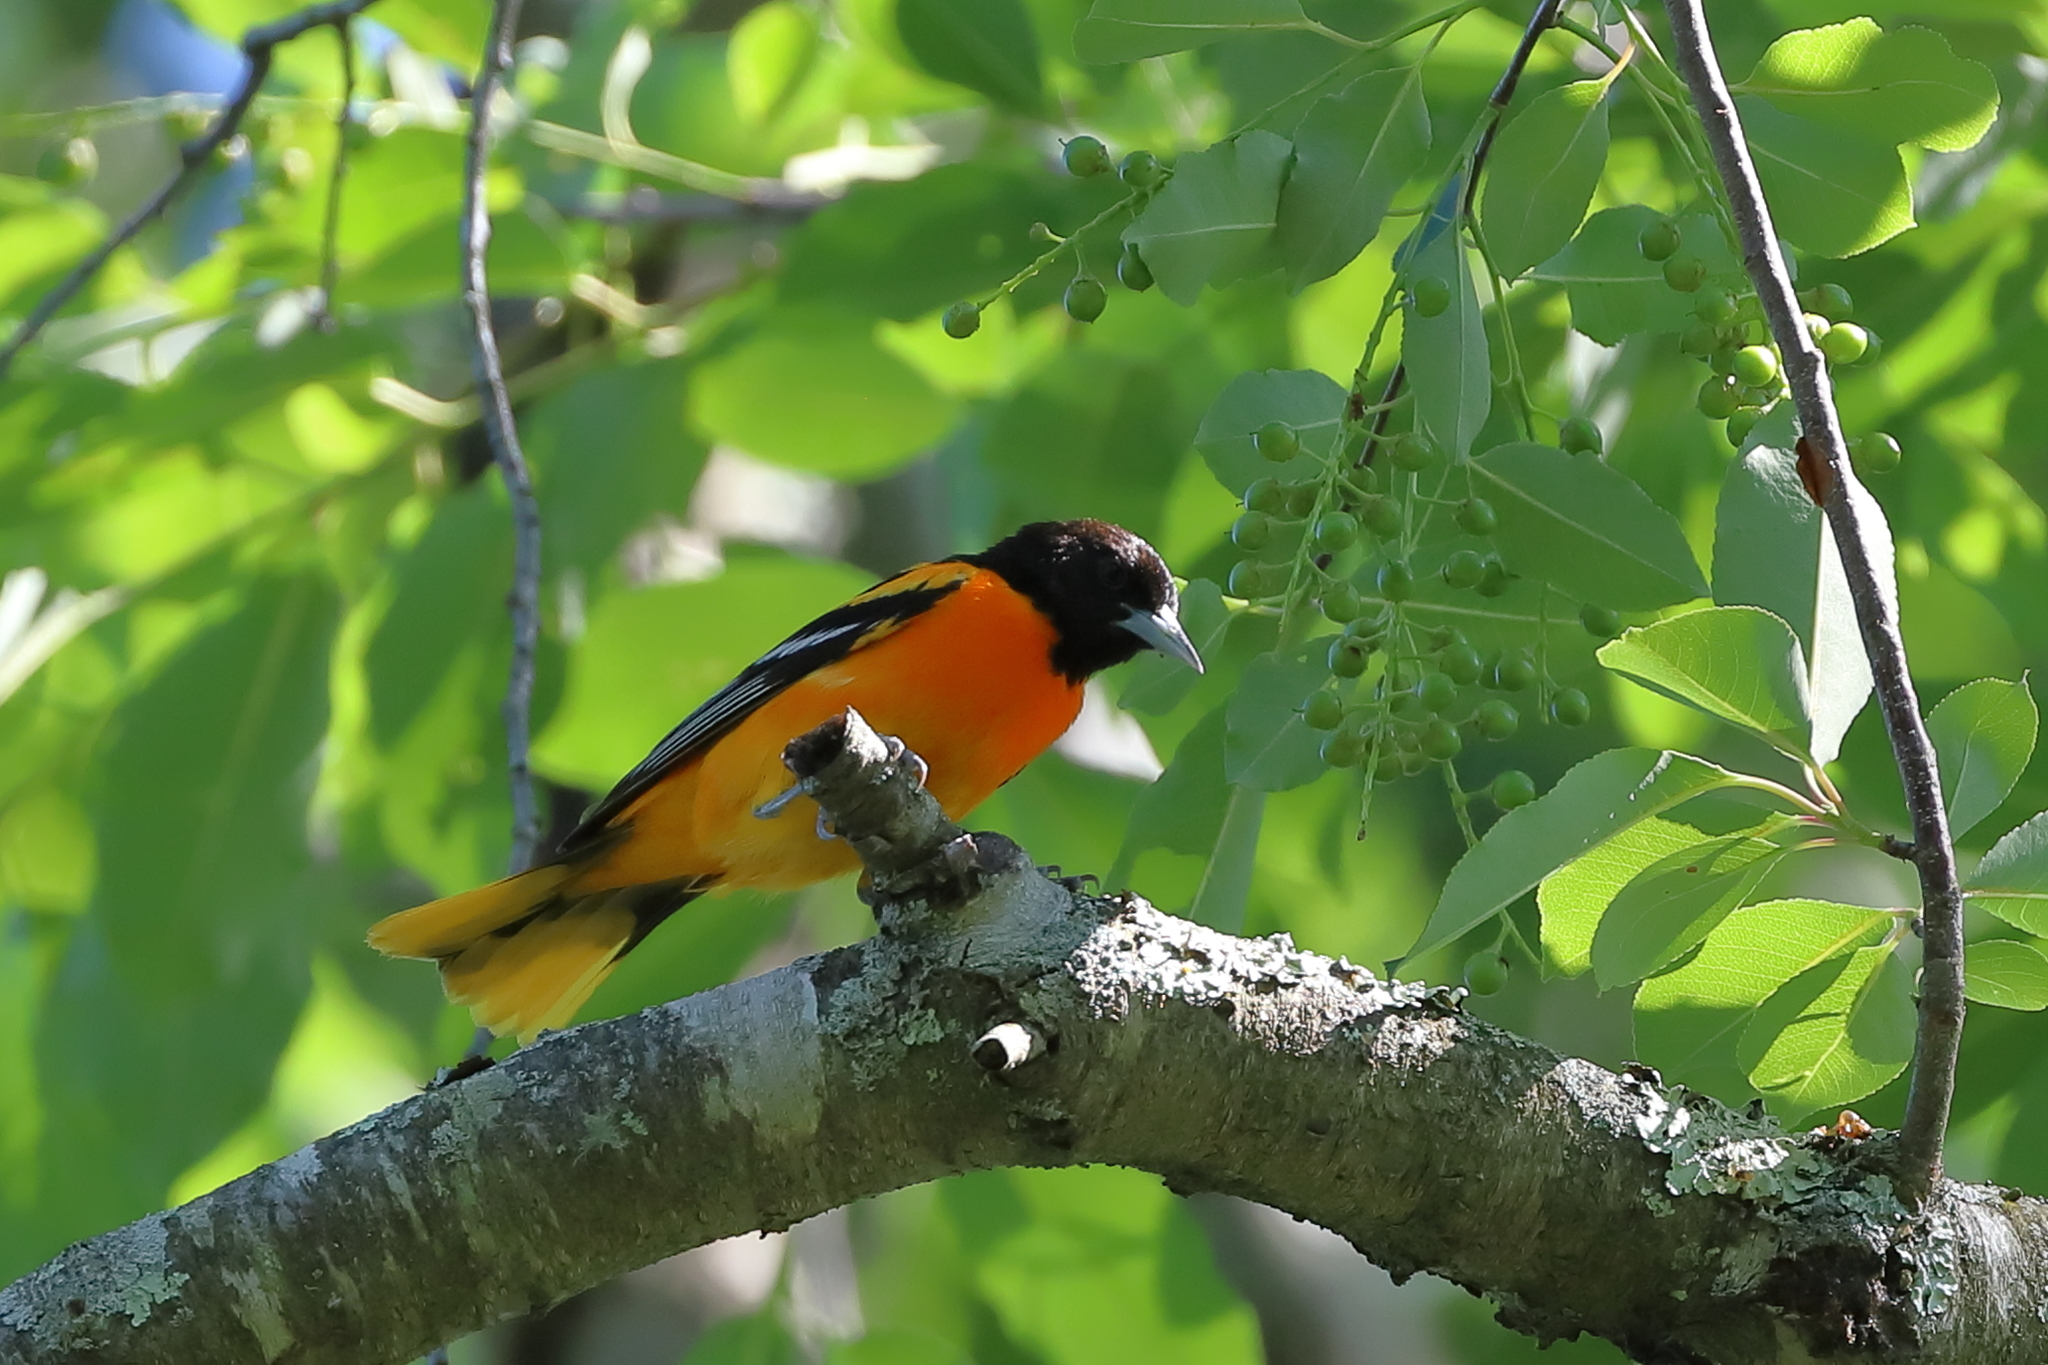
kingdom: Animalia
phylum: Chordata
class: Aves
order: Passeriformes
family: Icteridae
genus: Icterus
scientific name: Icterus galbula
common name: Baltimore oriole
